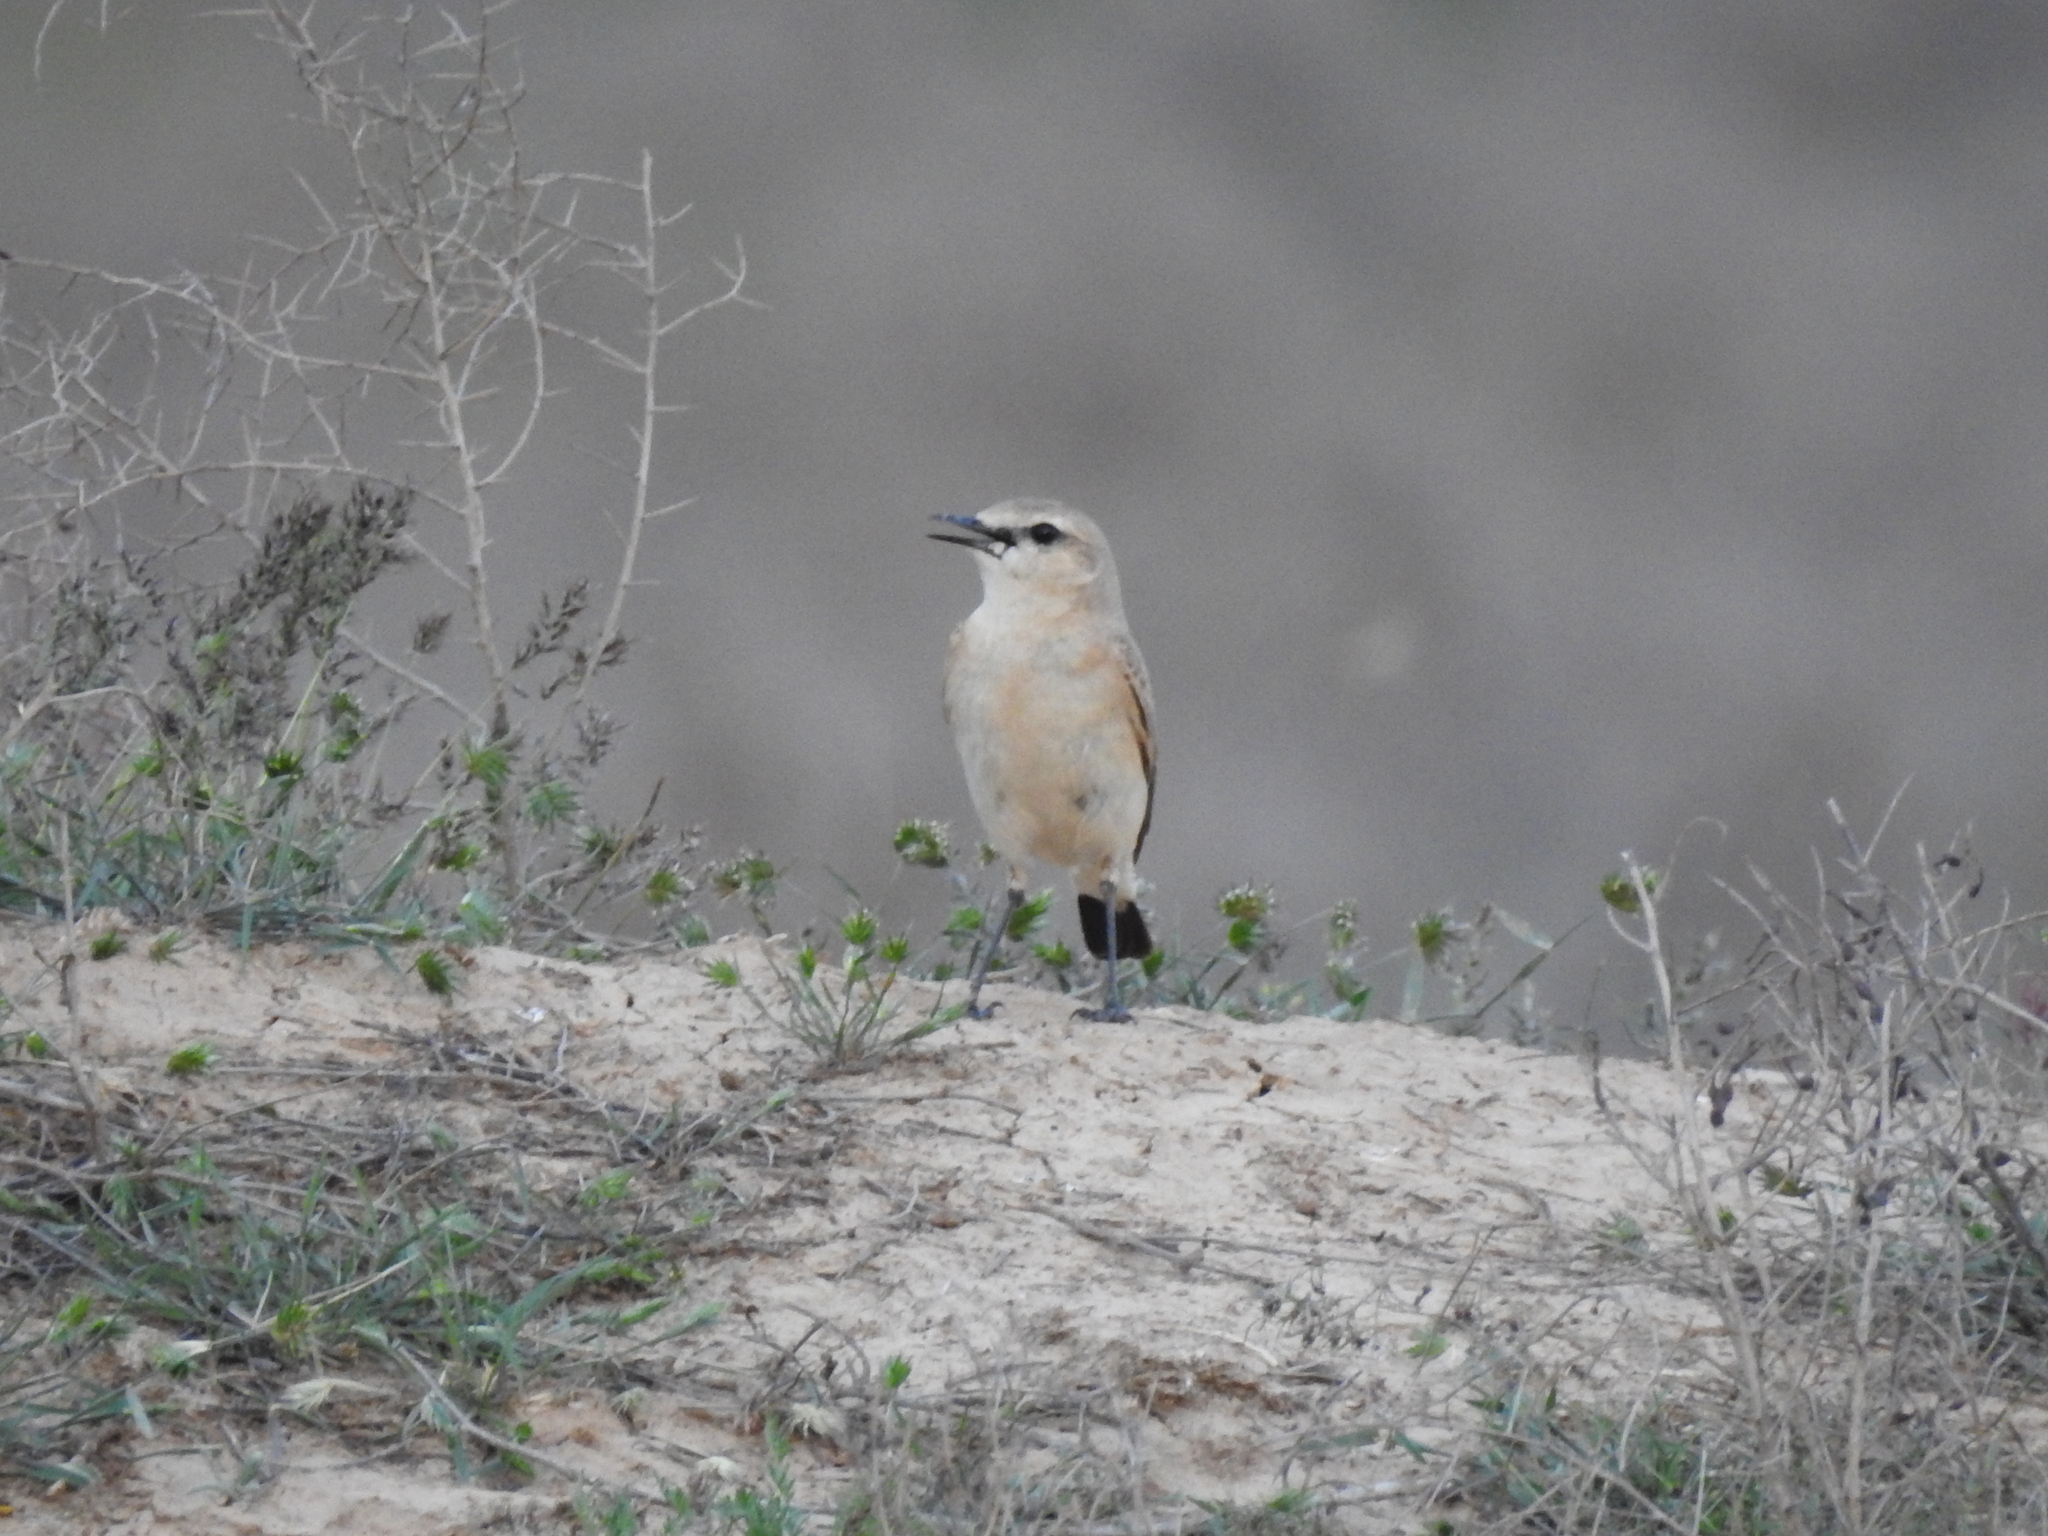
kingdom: Animalia
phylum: Chordata
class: Aves
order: Passeriformes
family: Muscicapidae
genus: Oenanthe
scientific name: Oenanthe isabellina
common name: Isabelline wheatear
